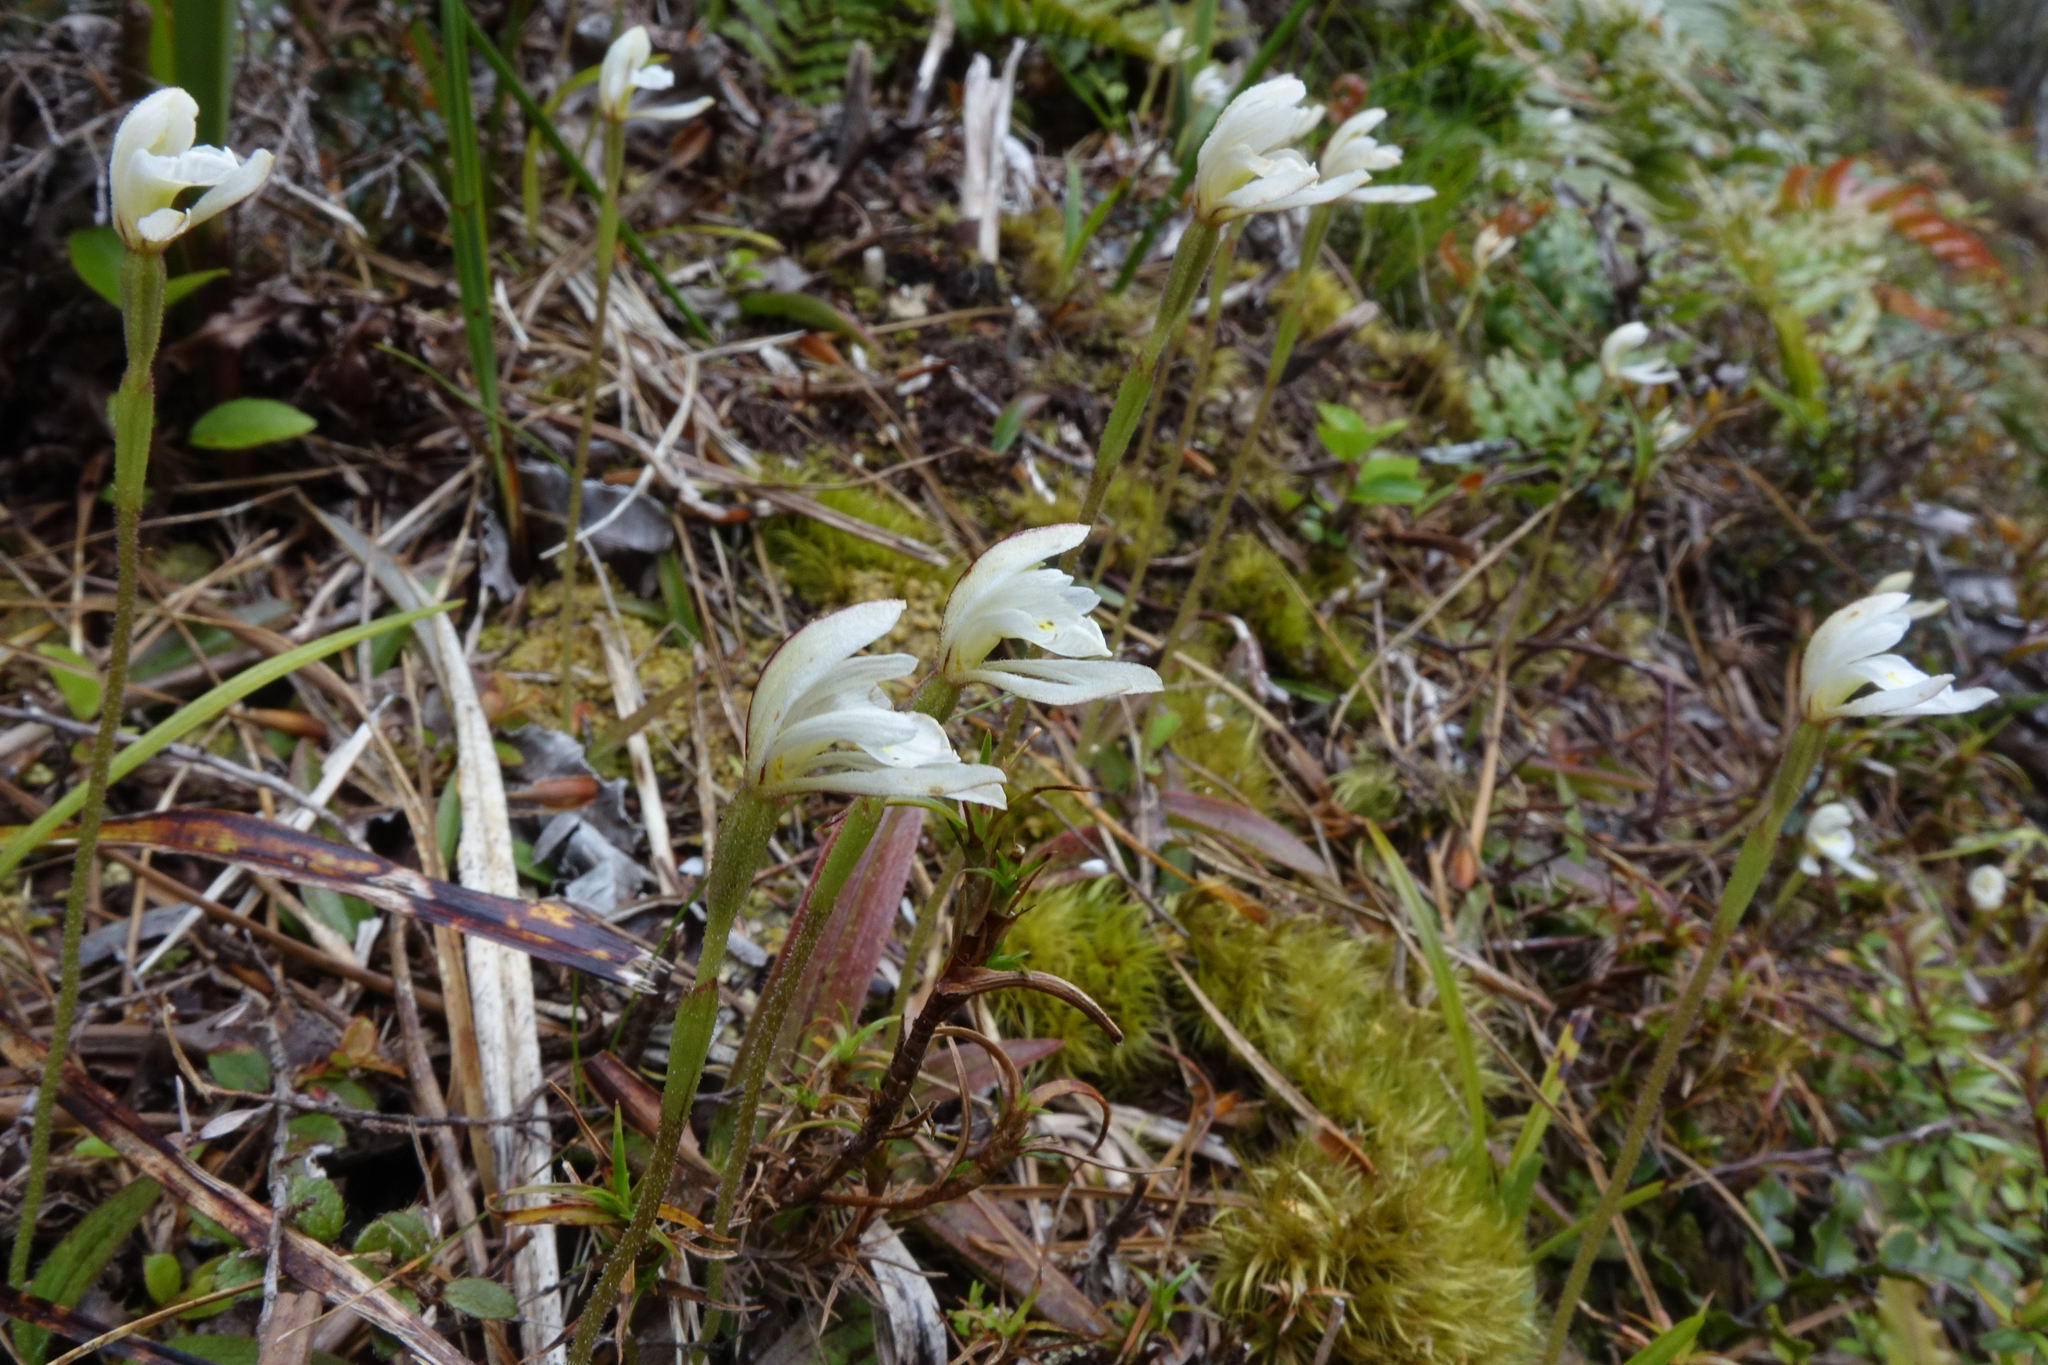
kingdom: Plantae
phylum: Tracheophyta
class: Liliopsida
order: Asparagales
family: Orchidaceae
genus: Aporostylis
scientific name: Aporostylis bifolia
